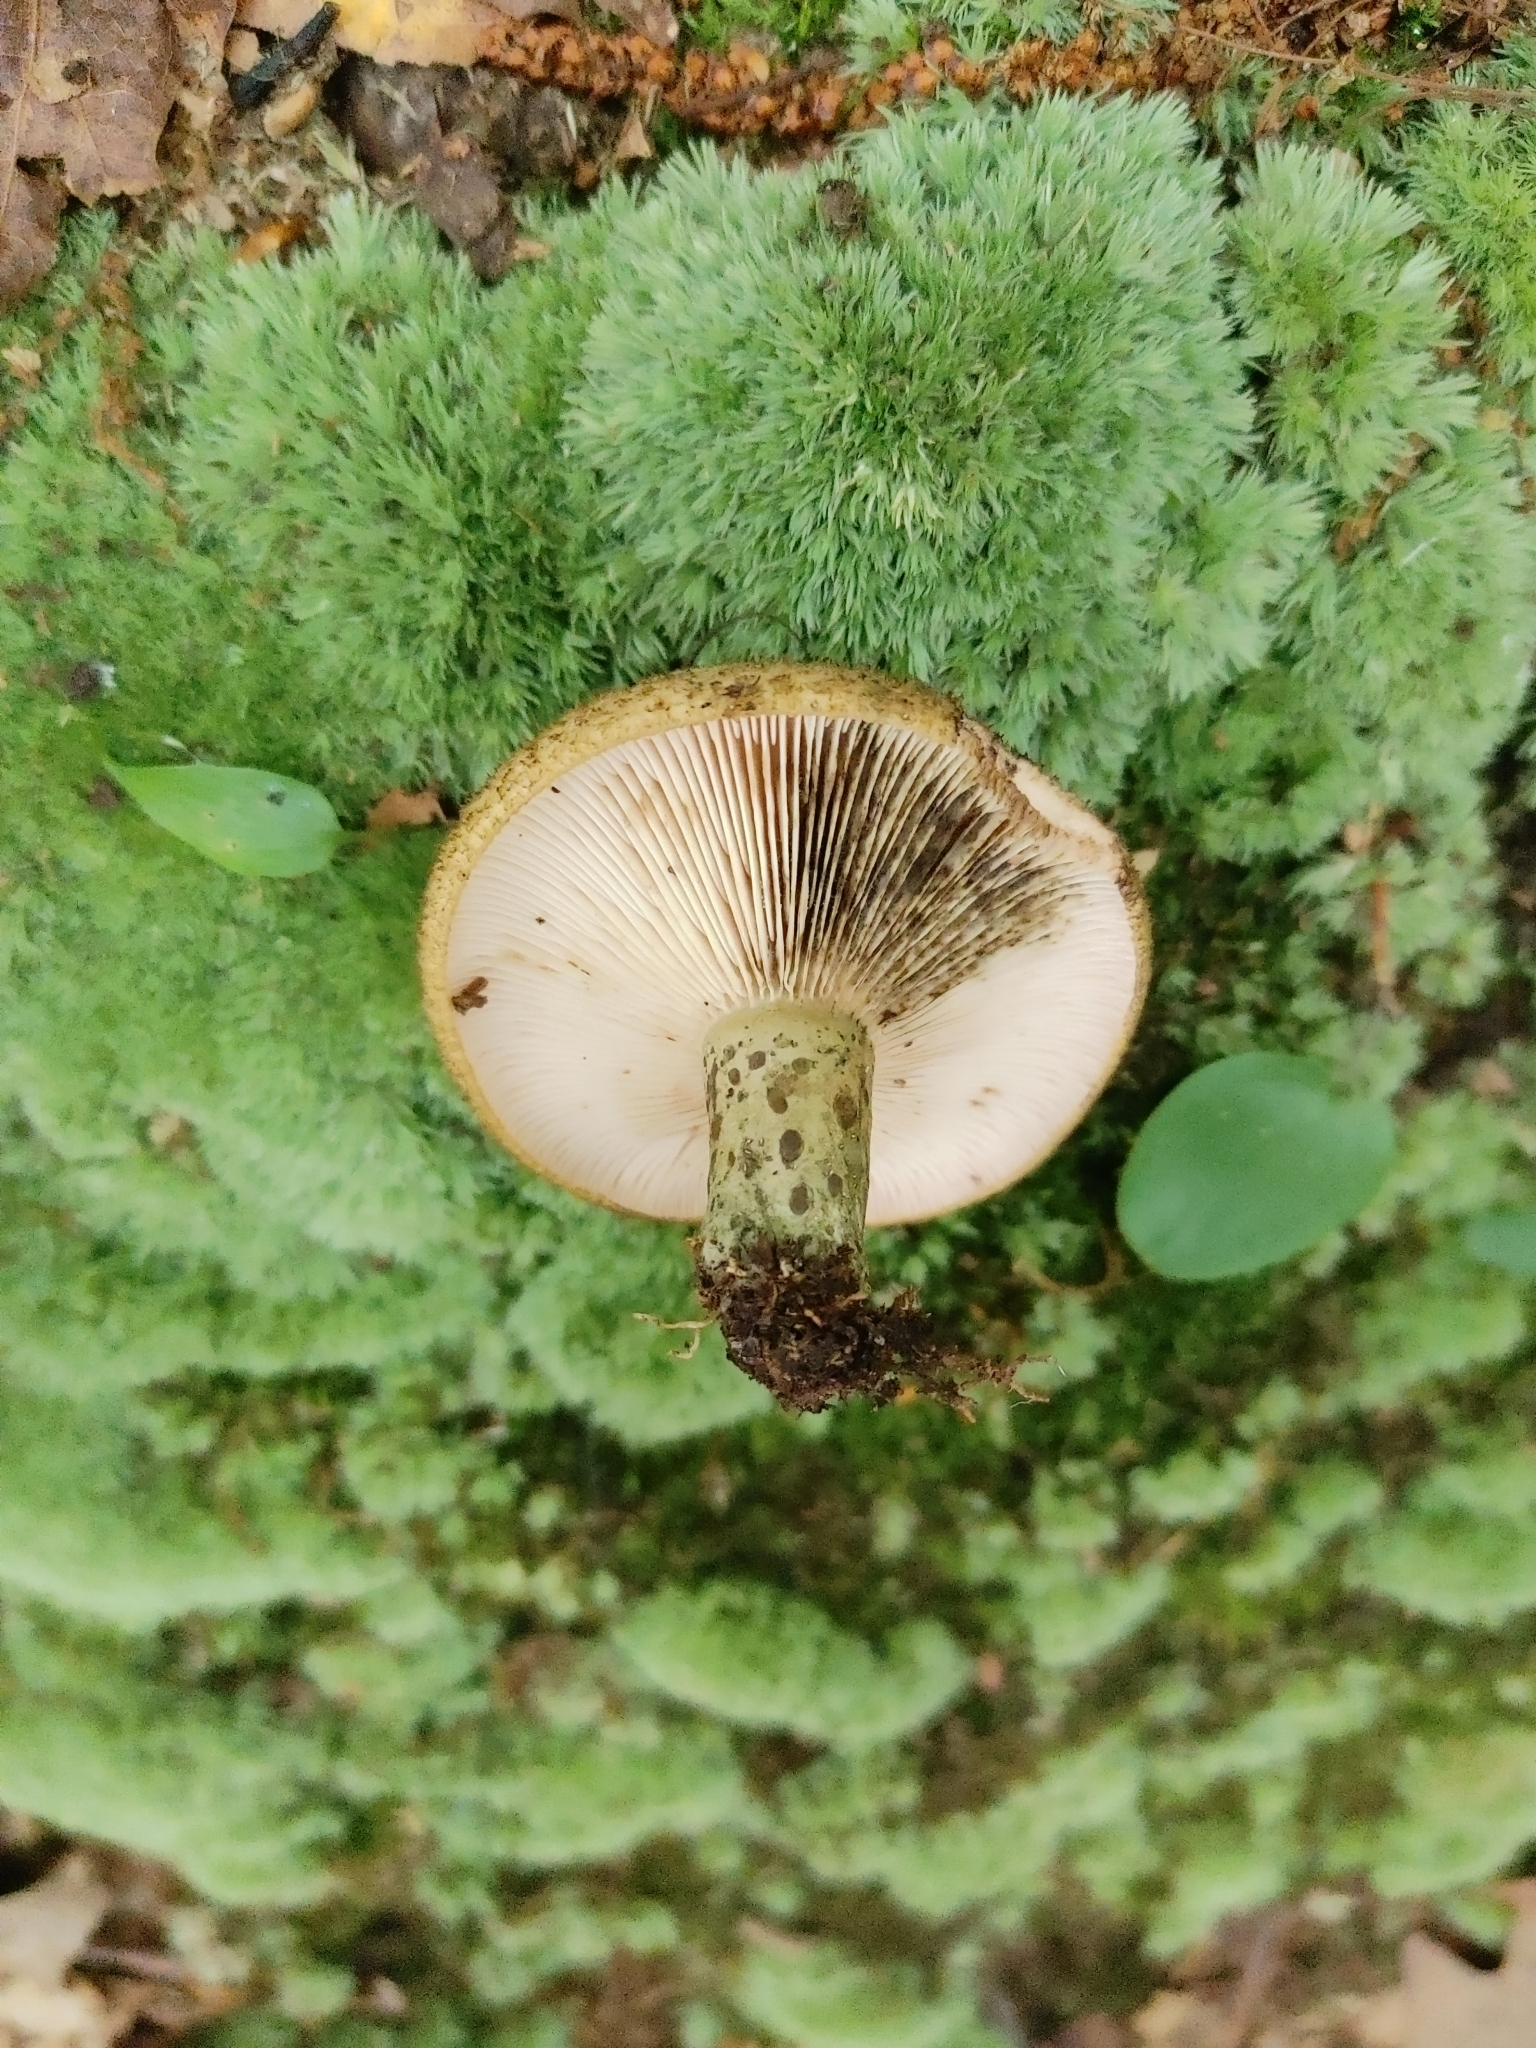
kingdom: Fungi
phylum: Basidiomycota
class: Agaricomycetes
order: Russulales
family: Russulaceae
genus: Lactarius
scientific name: Lactarius atroviridis
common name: Dark-spotted milkcap
